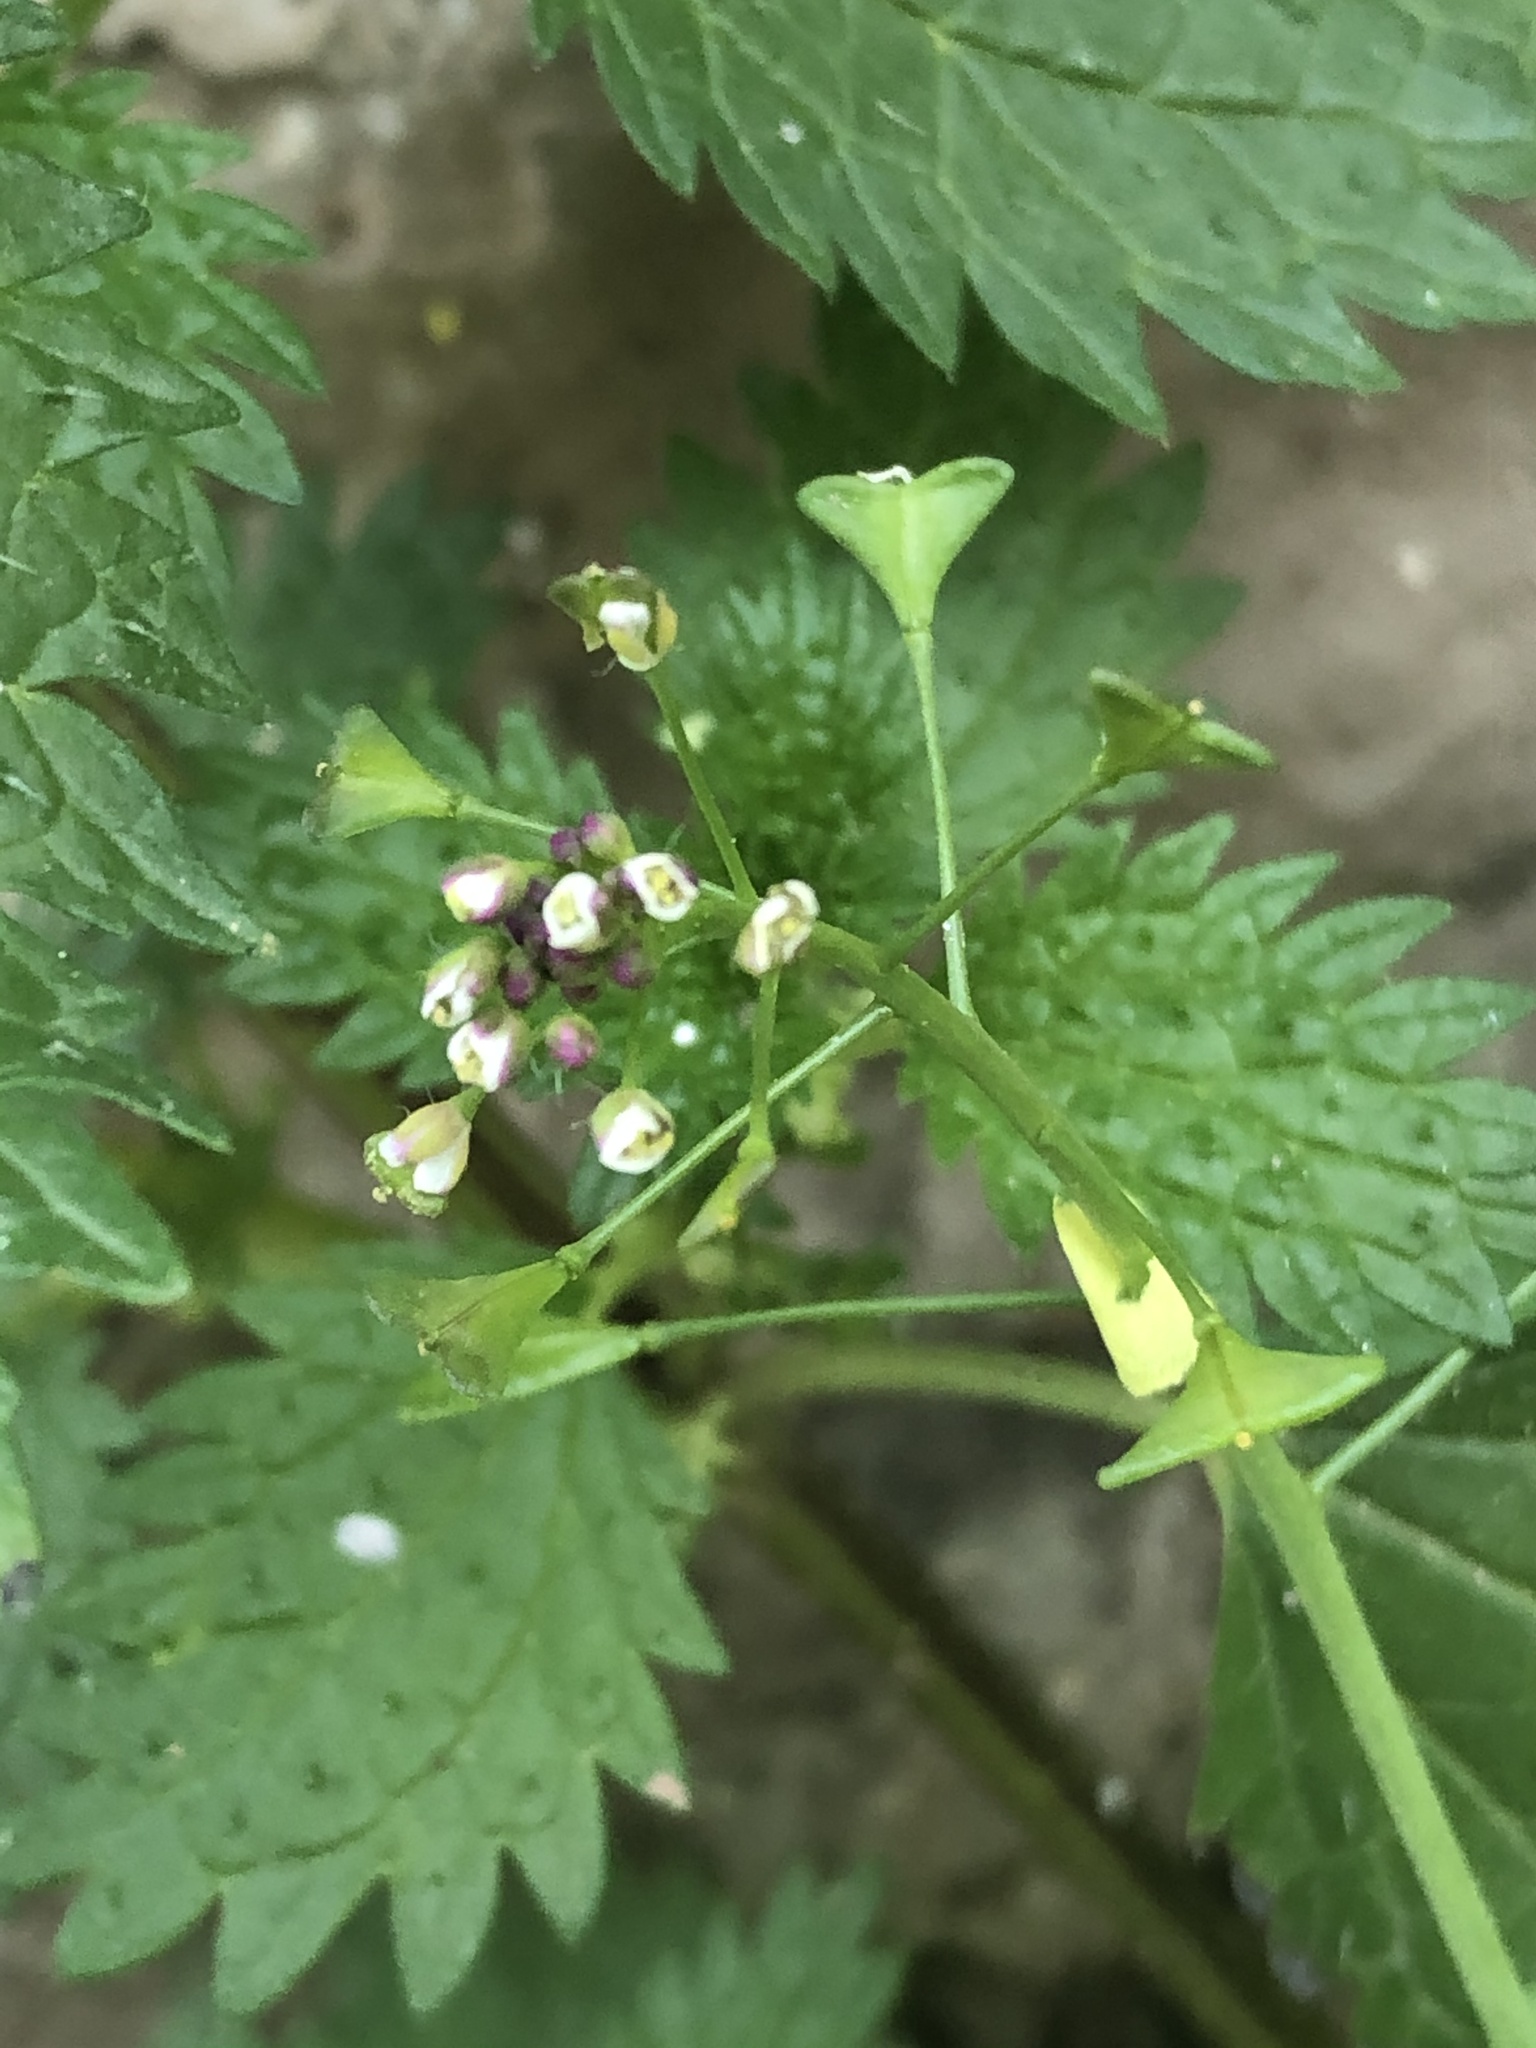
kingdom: Plantae
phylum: Tracheophyta
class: Magnoliopsida
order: Brassicales
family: Brassicaceae
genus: Capsella
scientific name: Capsella bursa-pastoris
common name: Shepherd's purse
